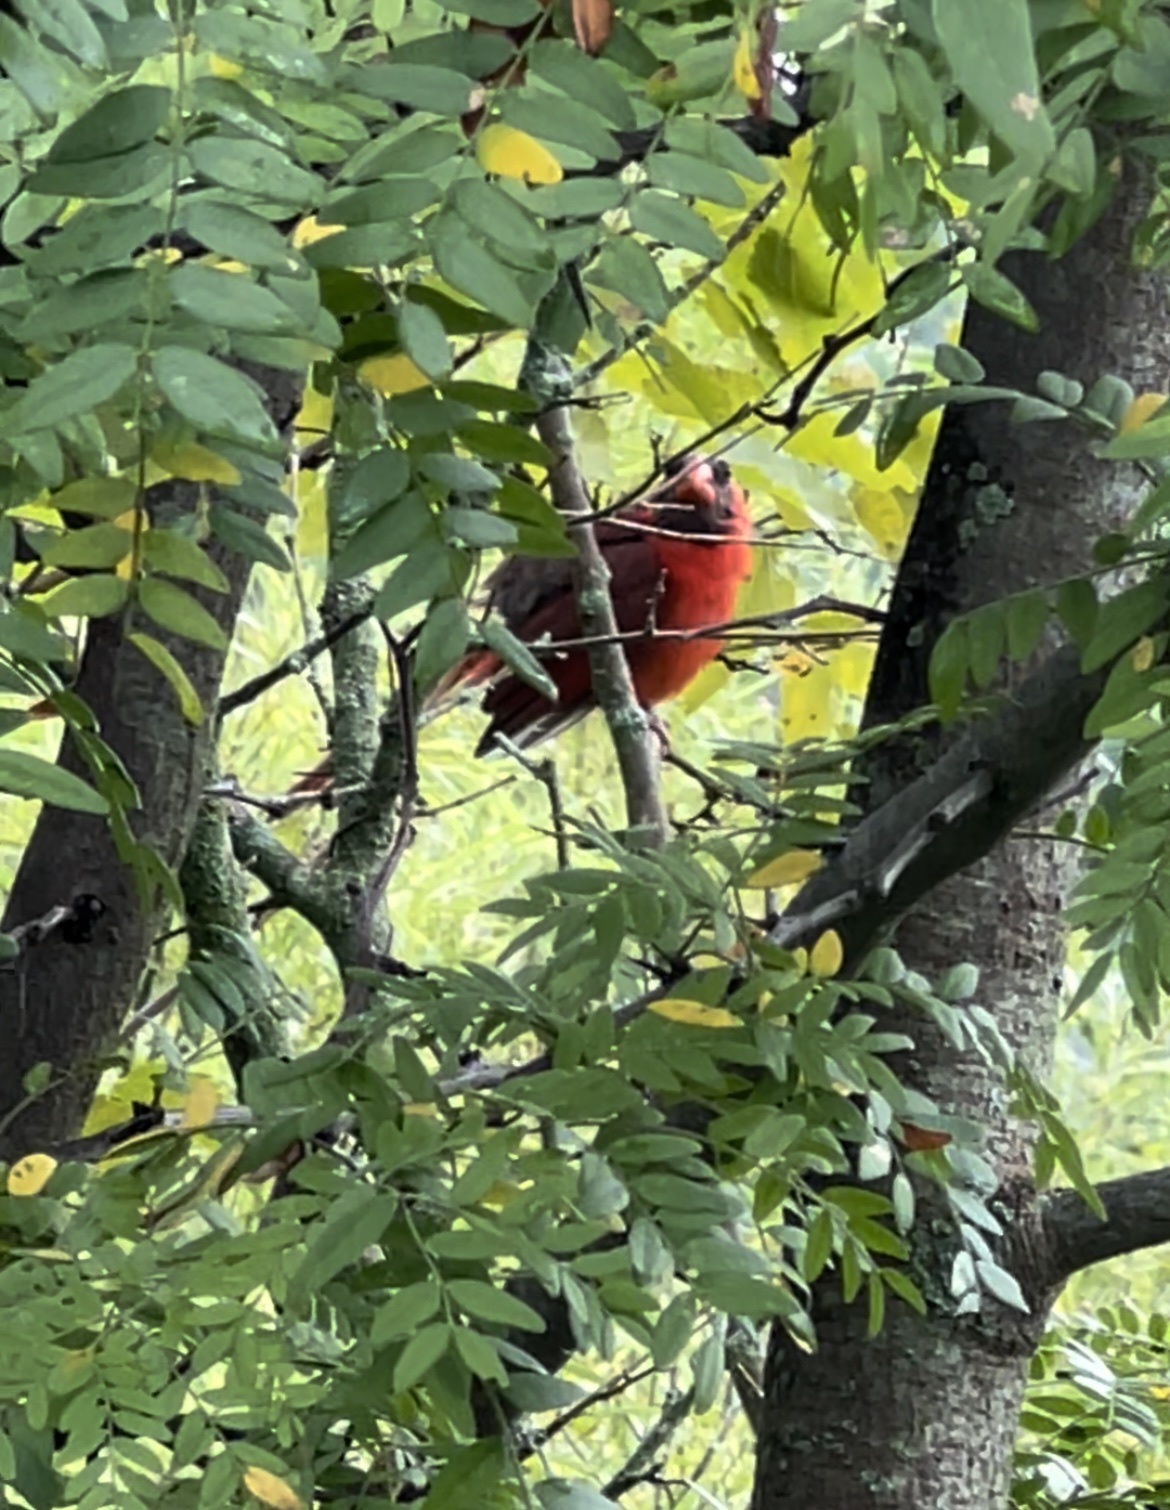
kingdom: Animalia
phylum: Chordata
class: Aves
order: Passeriformes
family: Cardinalidae
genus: Cardinalis
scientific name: Cardinalis cardinalis
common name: Northern cardinal
